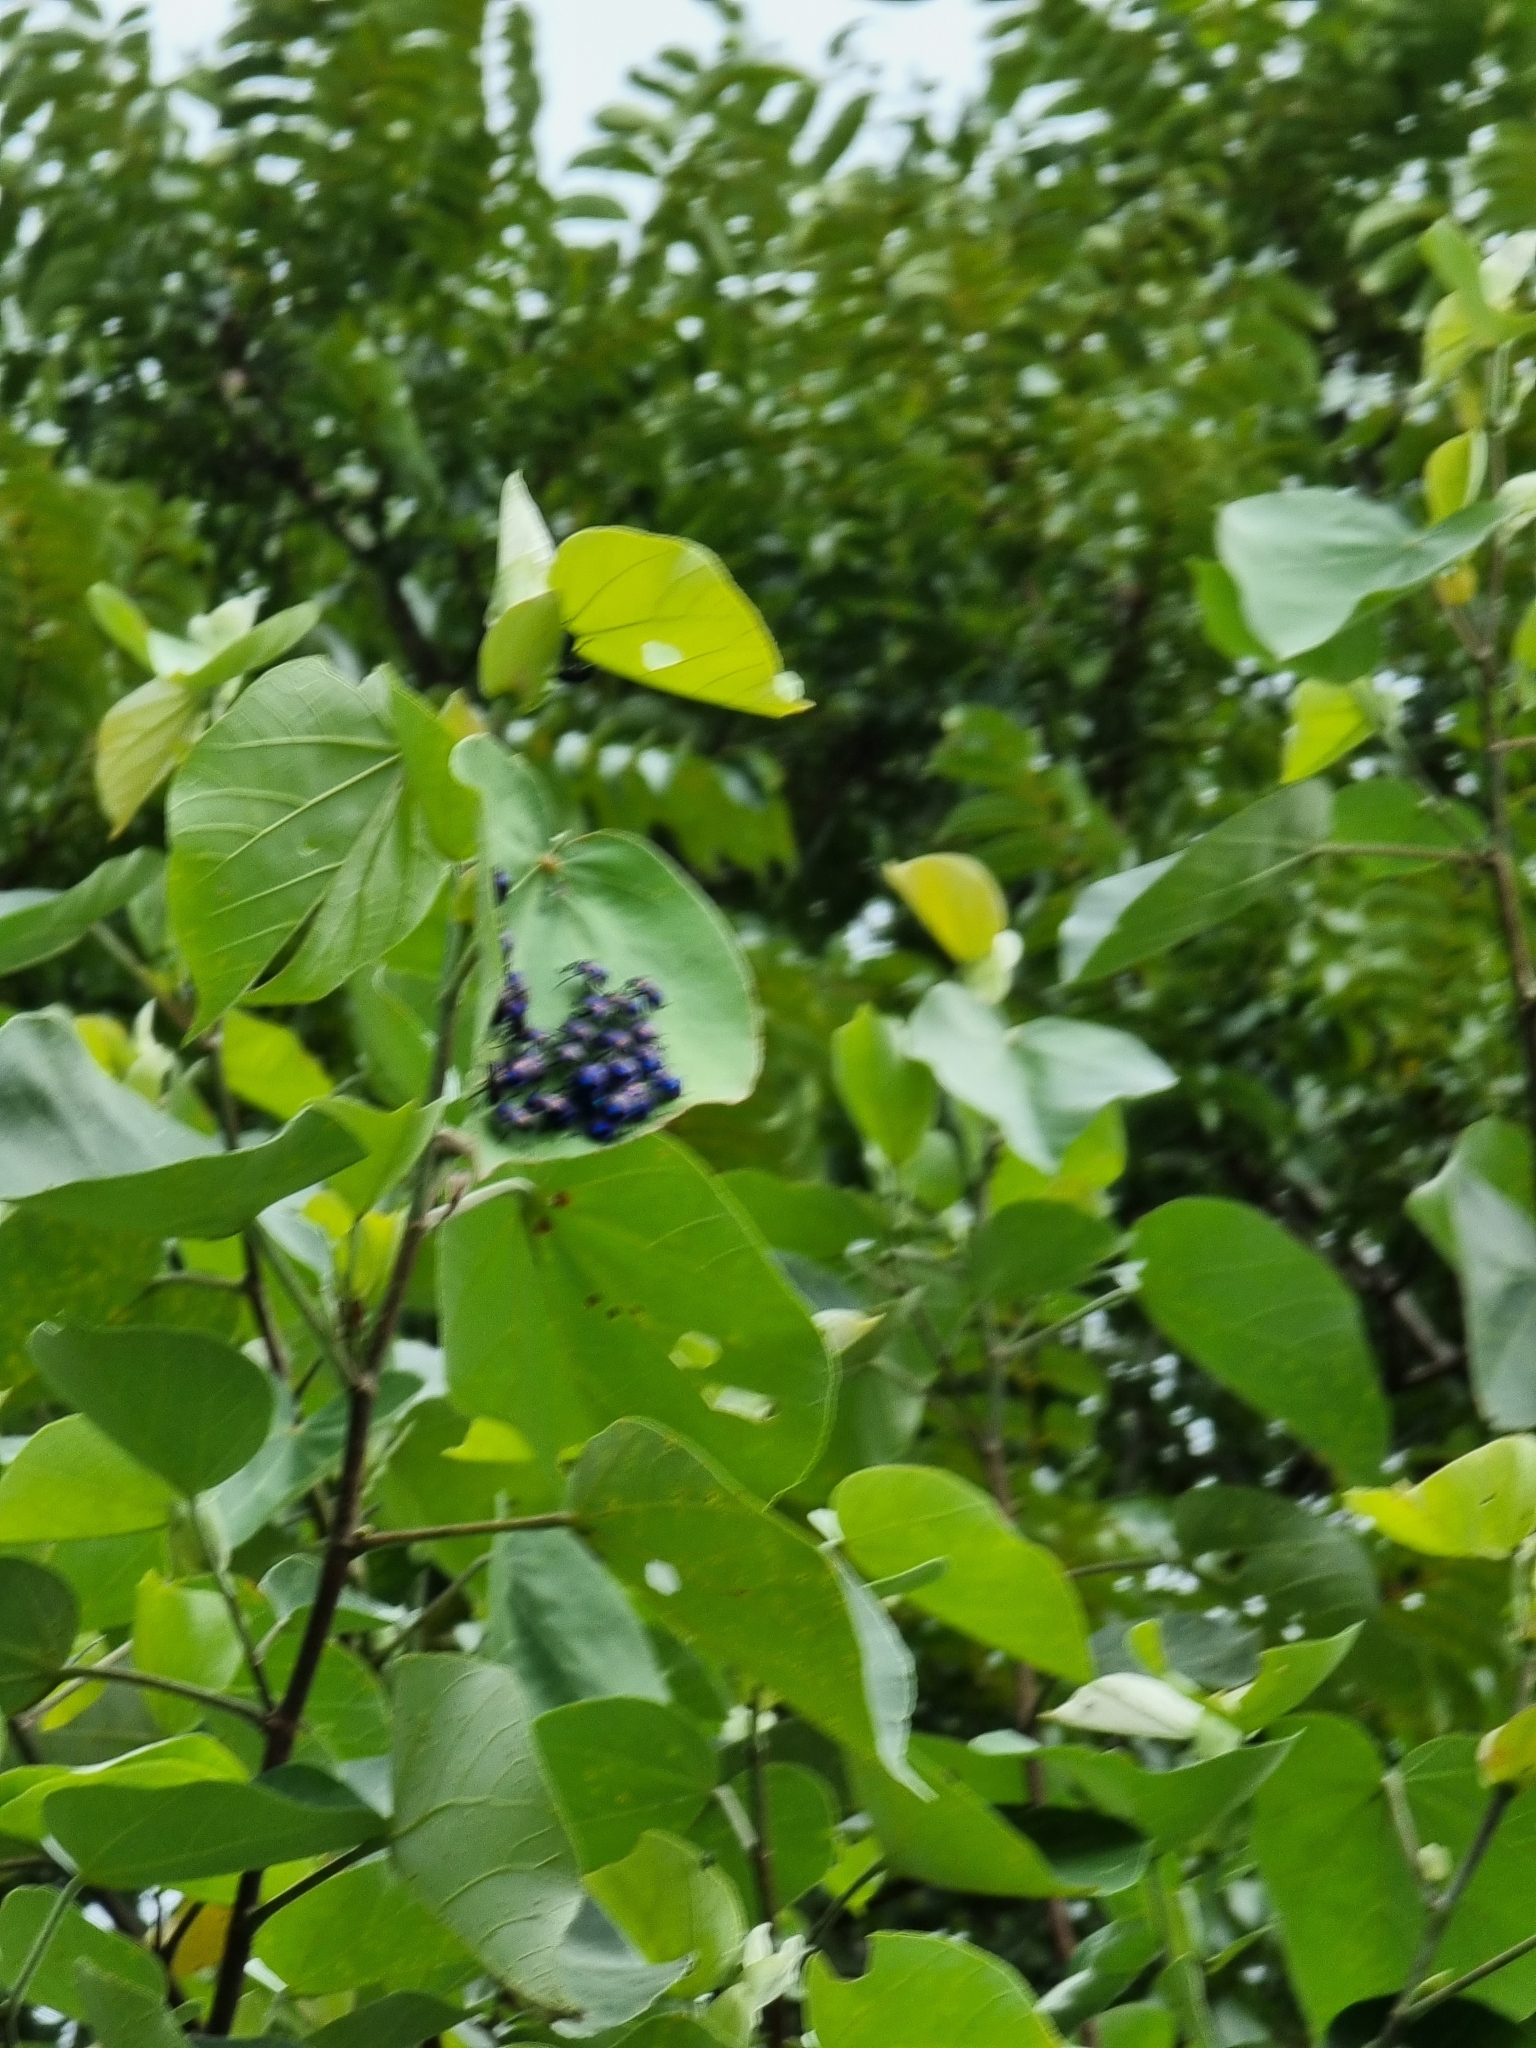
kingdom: Animalia
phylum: Arthropoda
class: Insecta
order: Hemiptera
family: Scutelleridae
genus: Tectocoris
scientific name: Tectocoris diophthalmus
